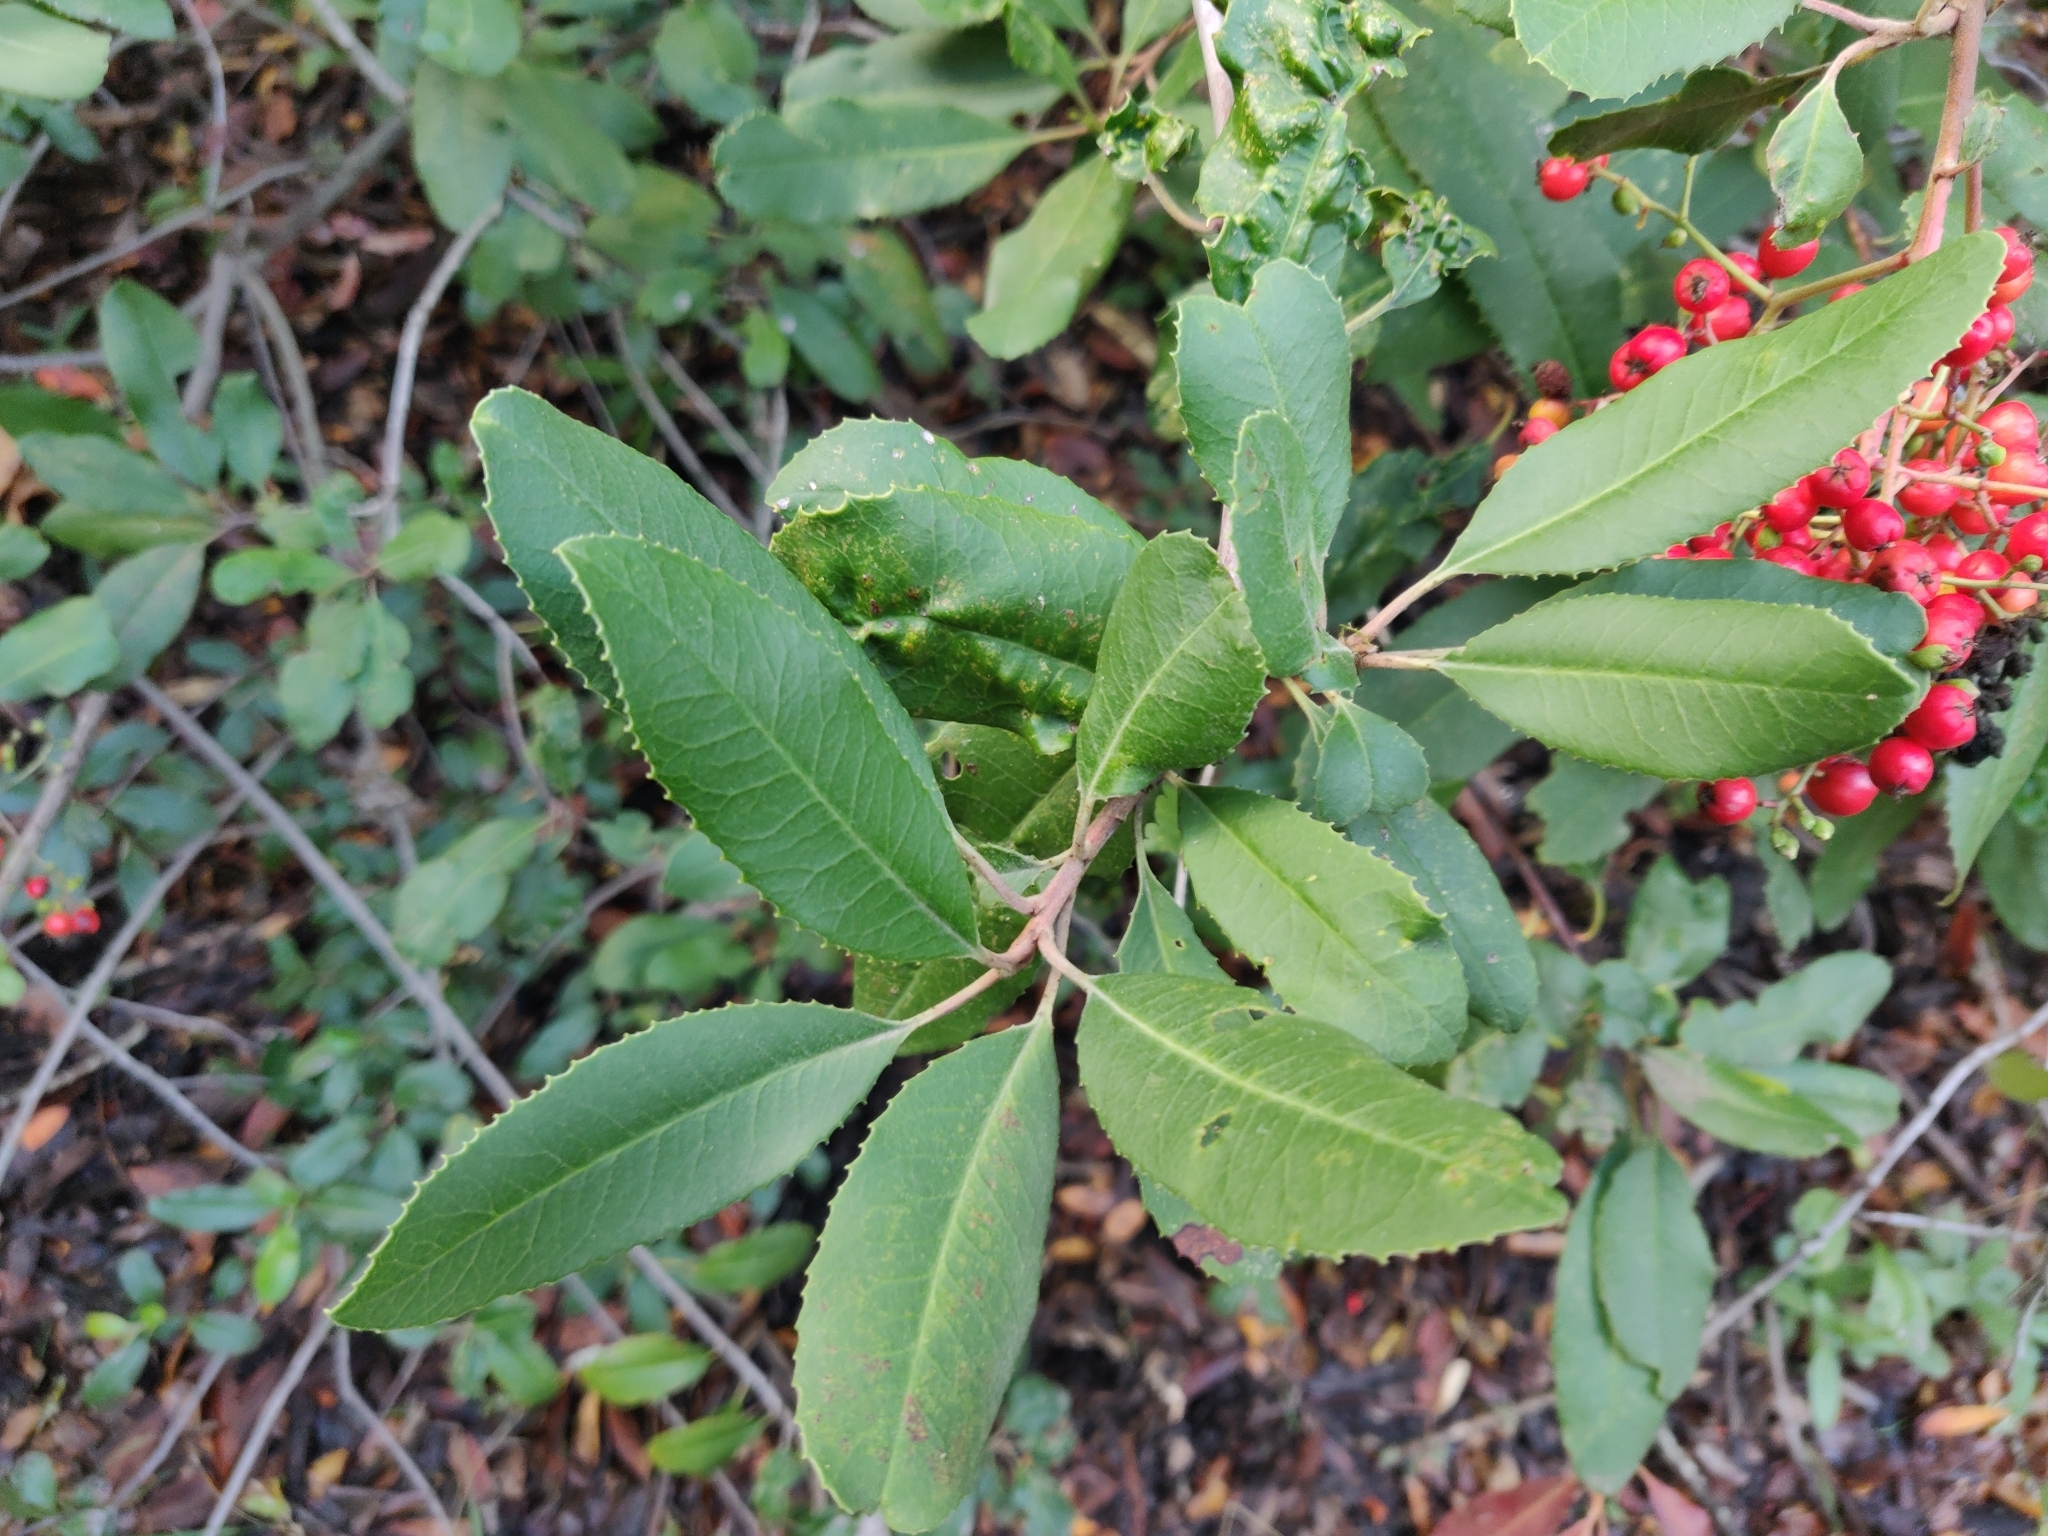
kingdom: Plantae
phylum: Tracheophyta
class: Magnoliopsida
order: Rosales
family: Rosaceae
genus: Heteromeles
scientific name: Heteromeles arbutifolia
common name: California-holly
